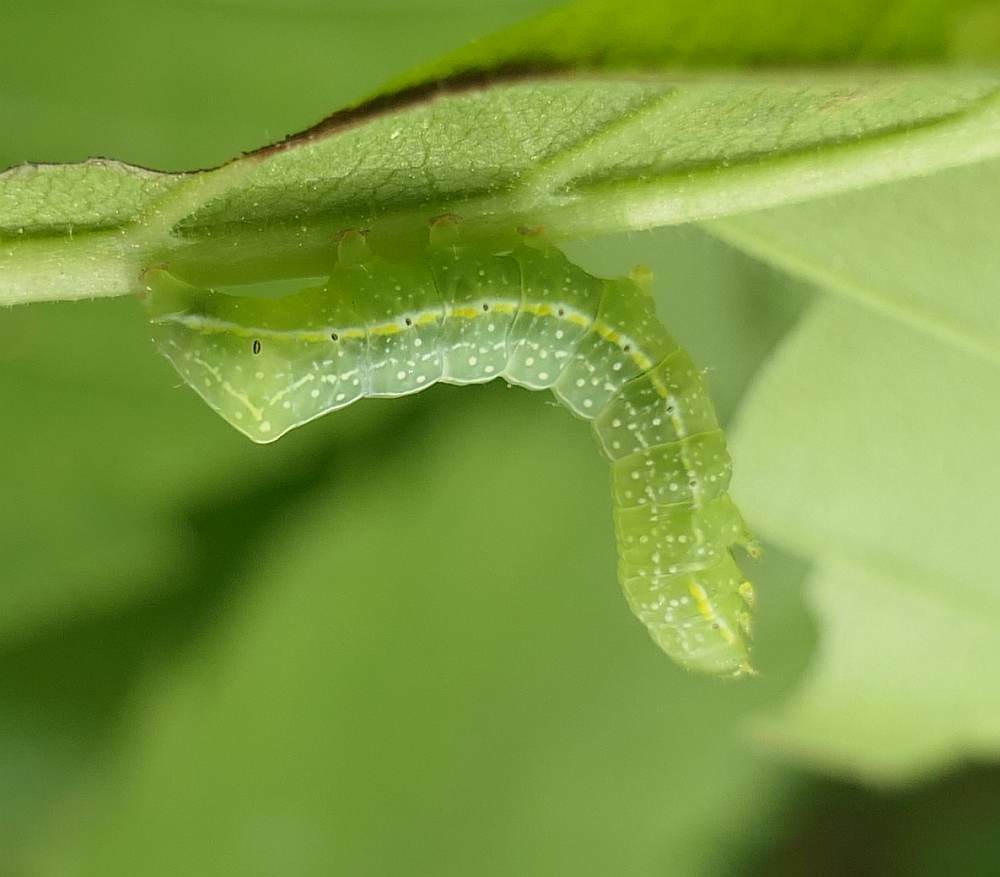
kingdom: Animalia
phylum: Arthropoda
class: Insecta
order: Lepidoptera
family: Noctuidae
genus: Amphipyra
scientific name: Amphipyra pyramidoides
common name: American copper underwing
